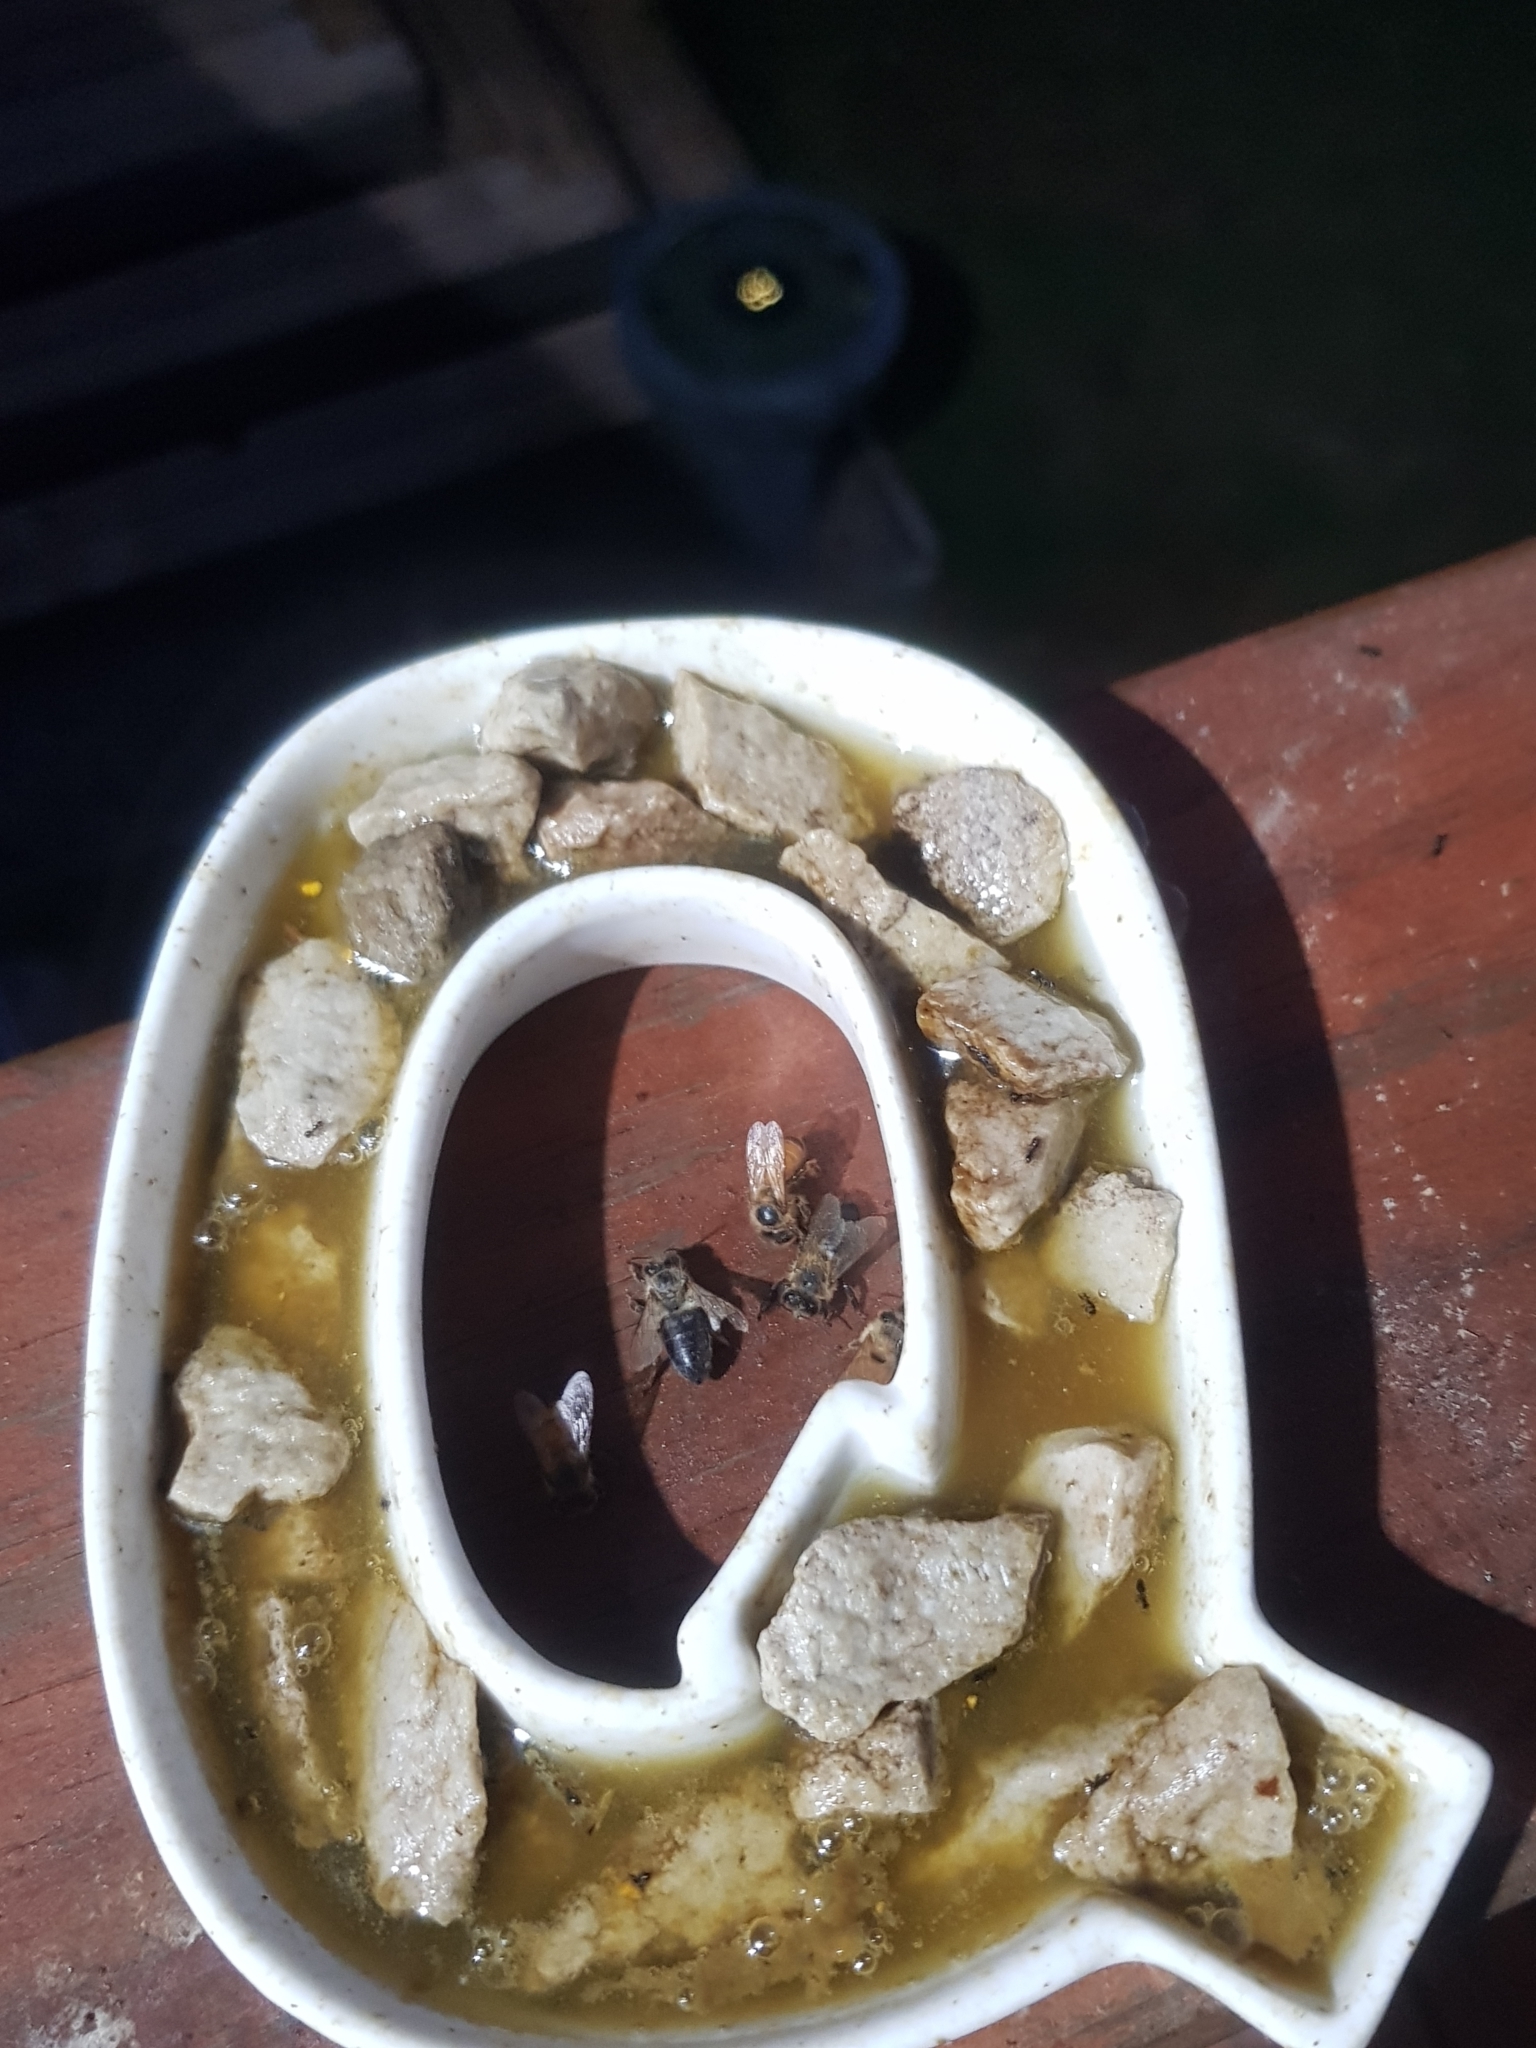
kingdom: Animalia
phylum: Arthropoda
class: Insecta
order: Hymenoptera
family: Apidae
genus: Apis
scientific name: Apis mellifera
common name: Honey bee
